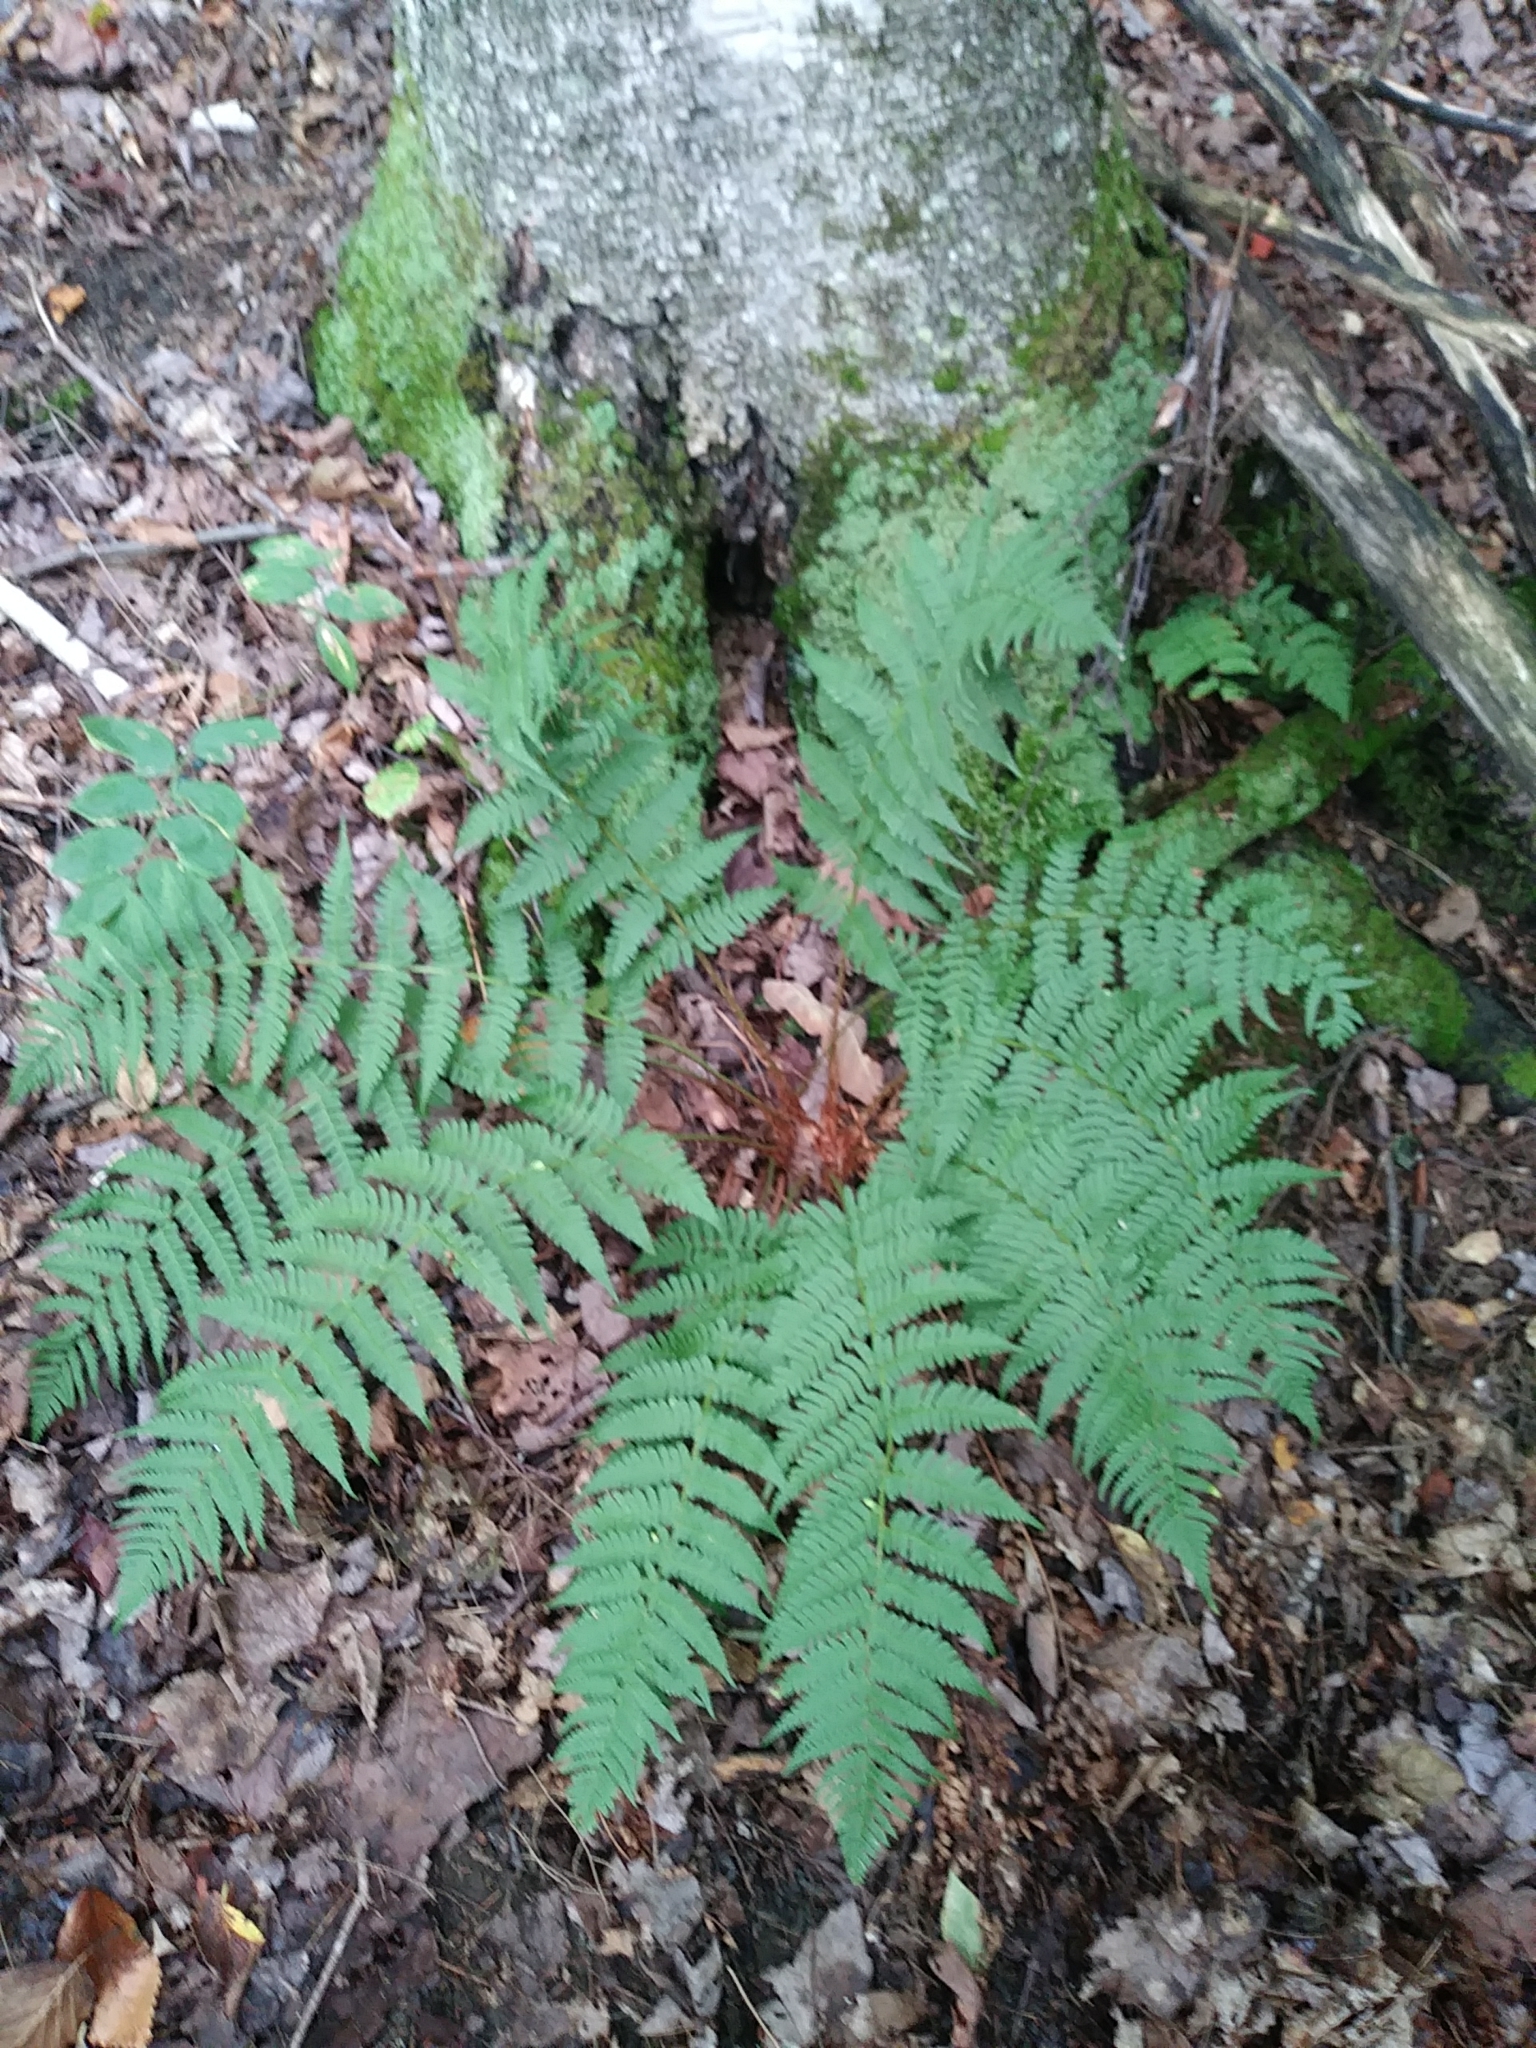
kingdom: Plantae
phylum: Tracheophyta
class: Polypodiopsida
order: Polypodiales
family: Dryopteridaceae
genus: Dryopteris
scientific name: Dryopteris marginalis
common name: Marginal wood fern
